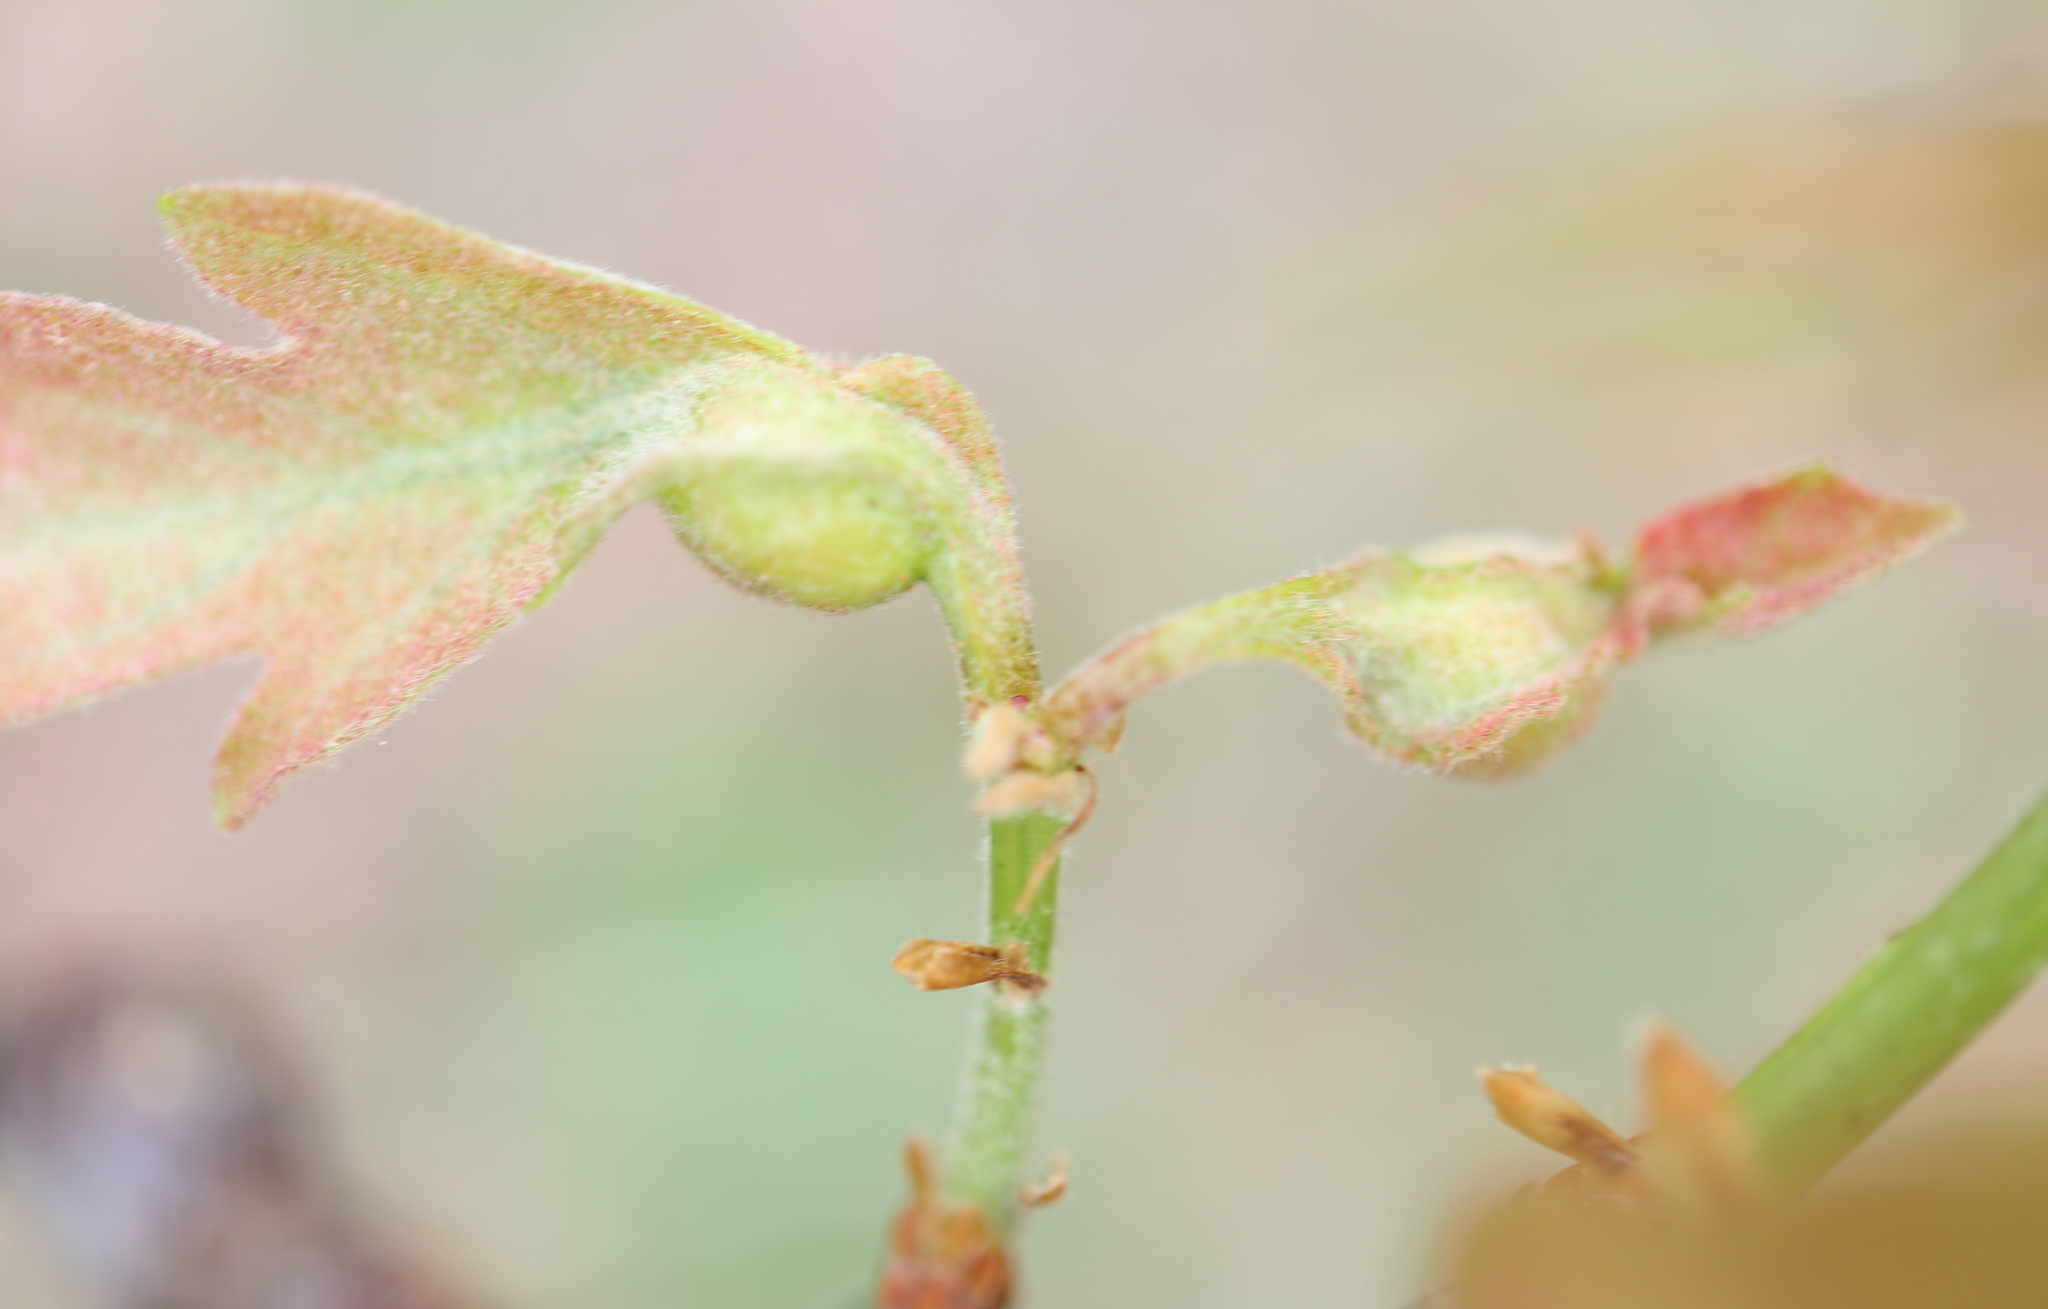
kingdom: Animalia
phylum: Arthropoda
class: Insecta
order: Hymenoptera
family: Cynipidae
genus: Andricus
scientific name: Andricus
